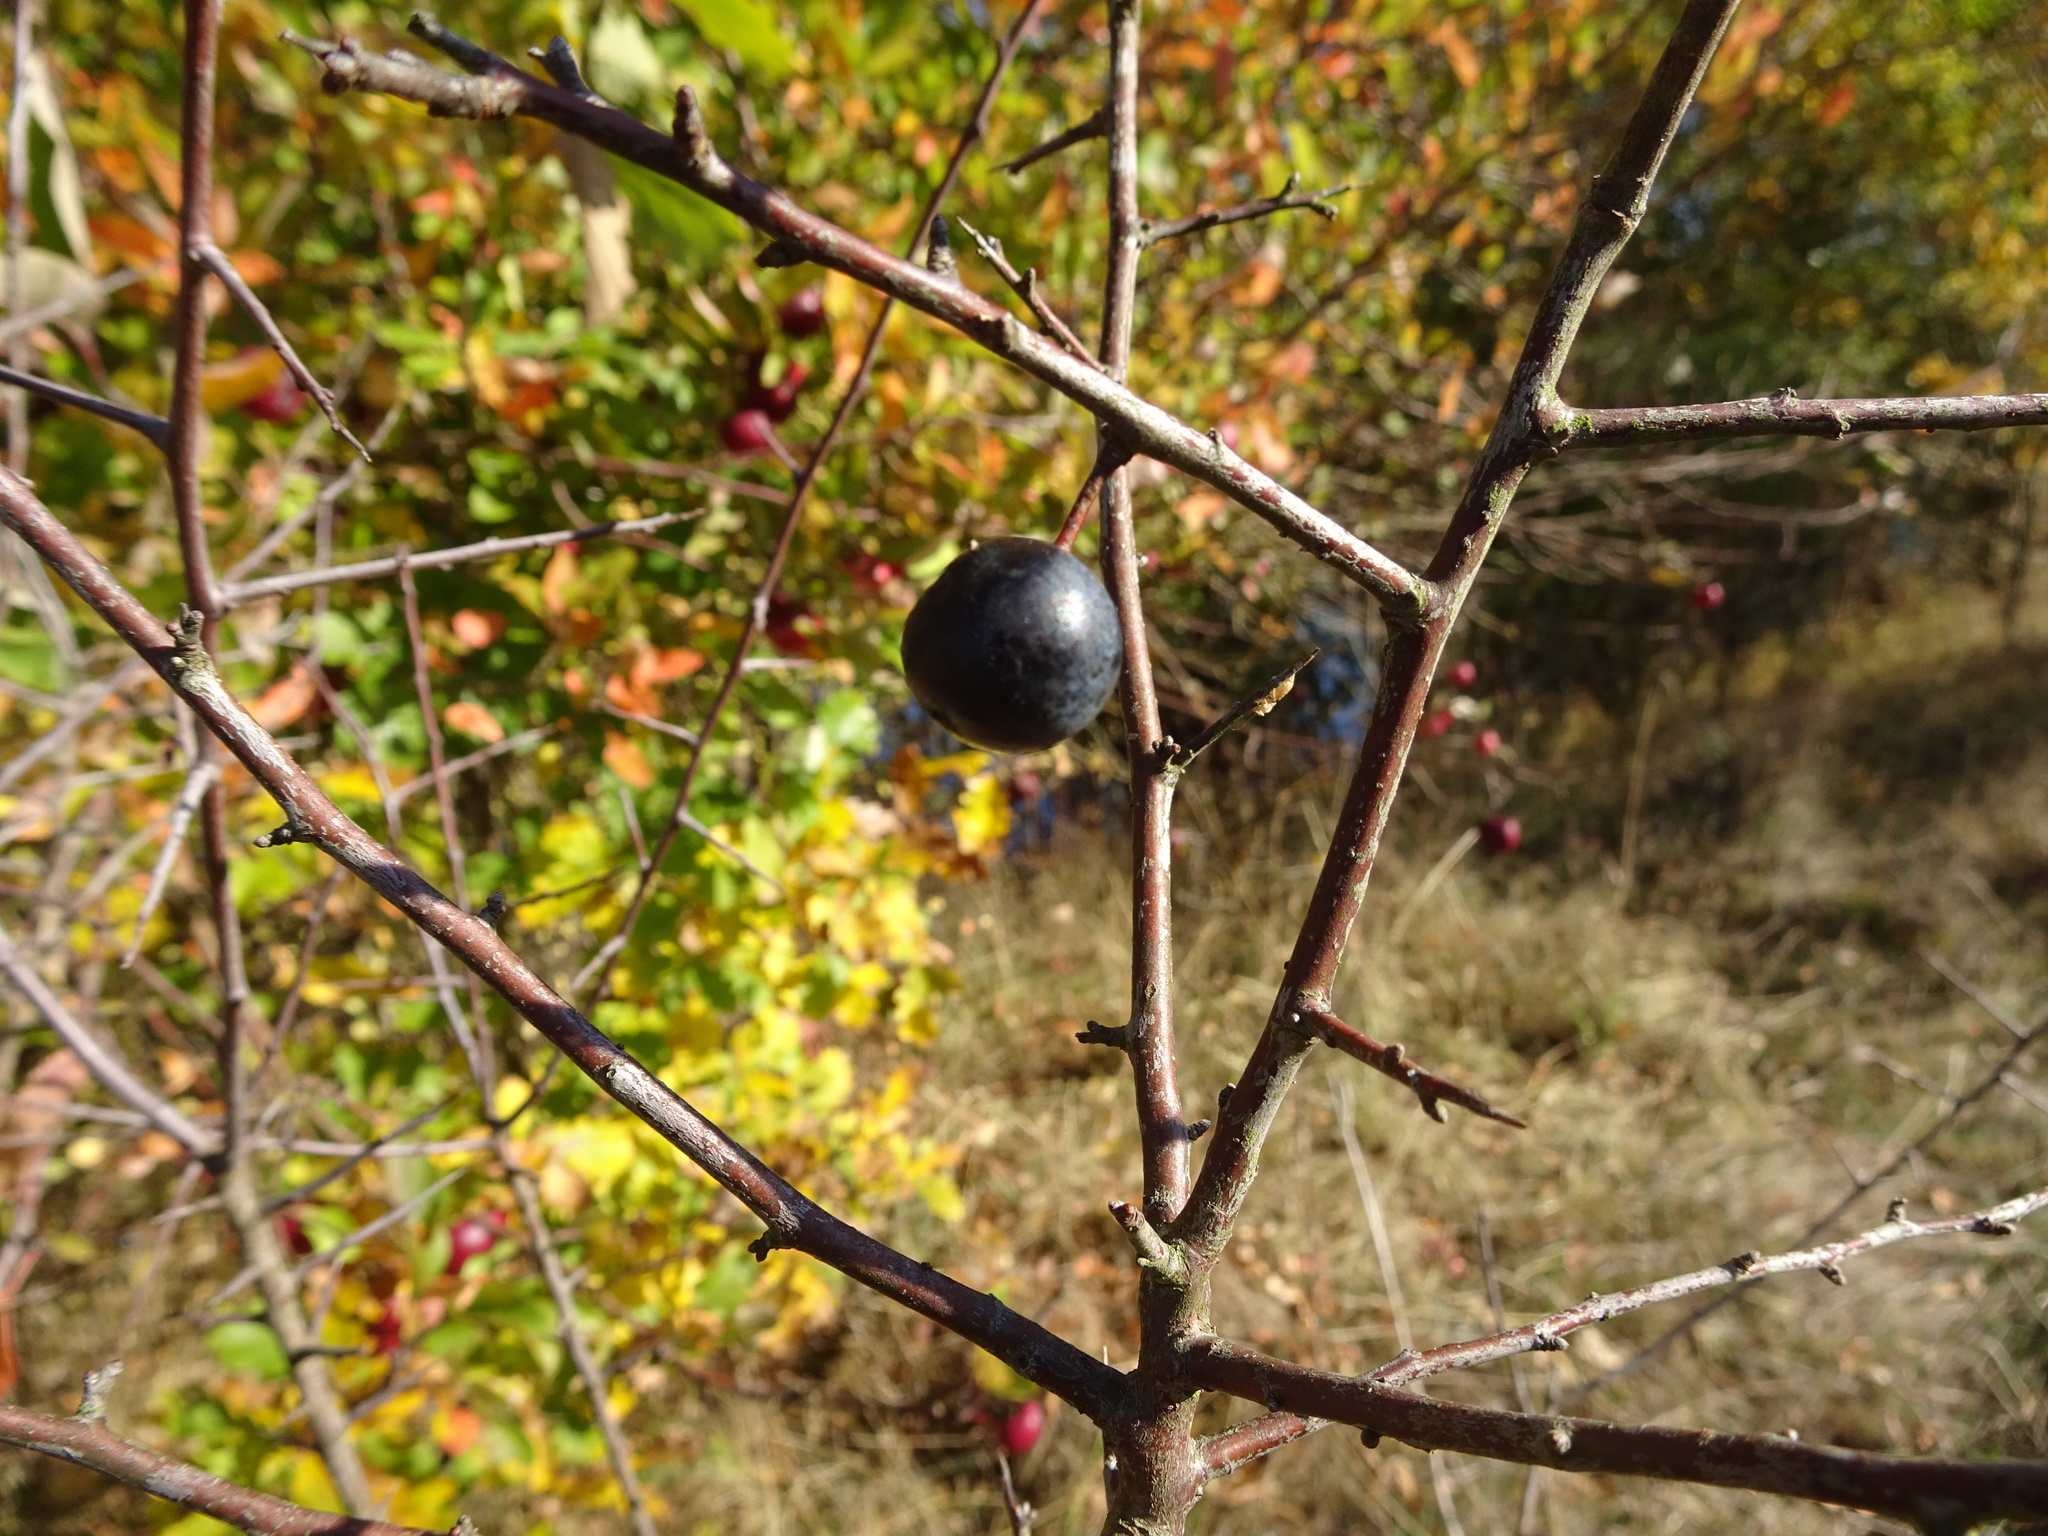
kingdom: Plantae
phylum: Tracheophyta
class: Magnoliopsida
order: Rosales
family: Rosaceae
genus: Prunus
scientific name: Prunus spinosa
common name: Blackthorn
